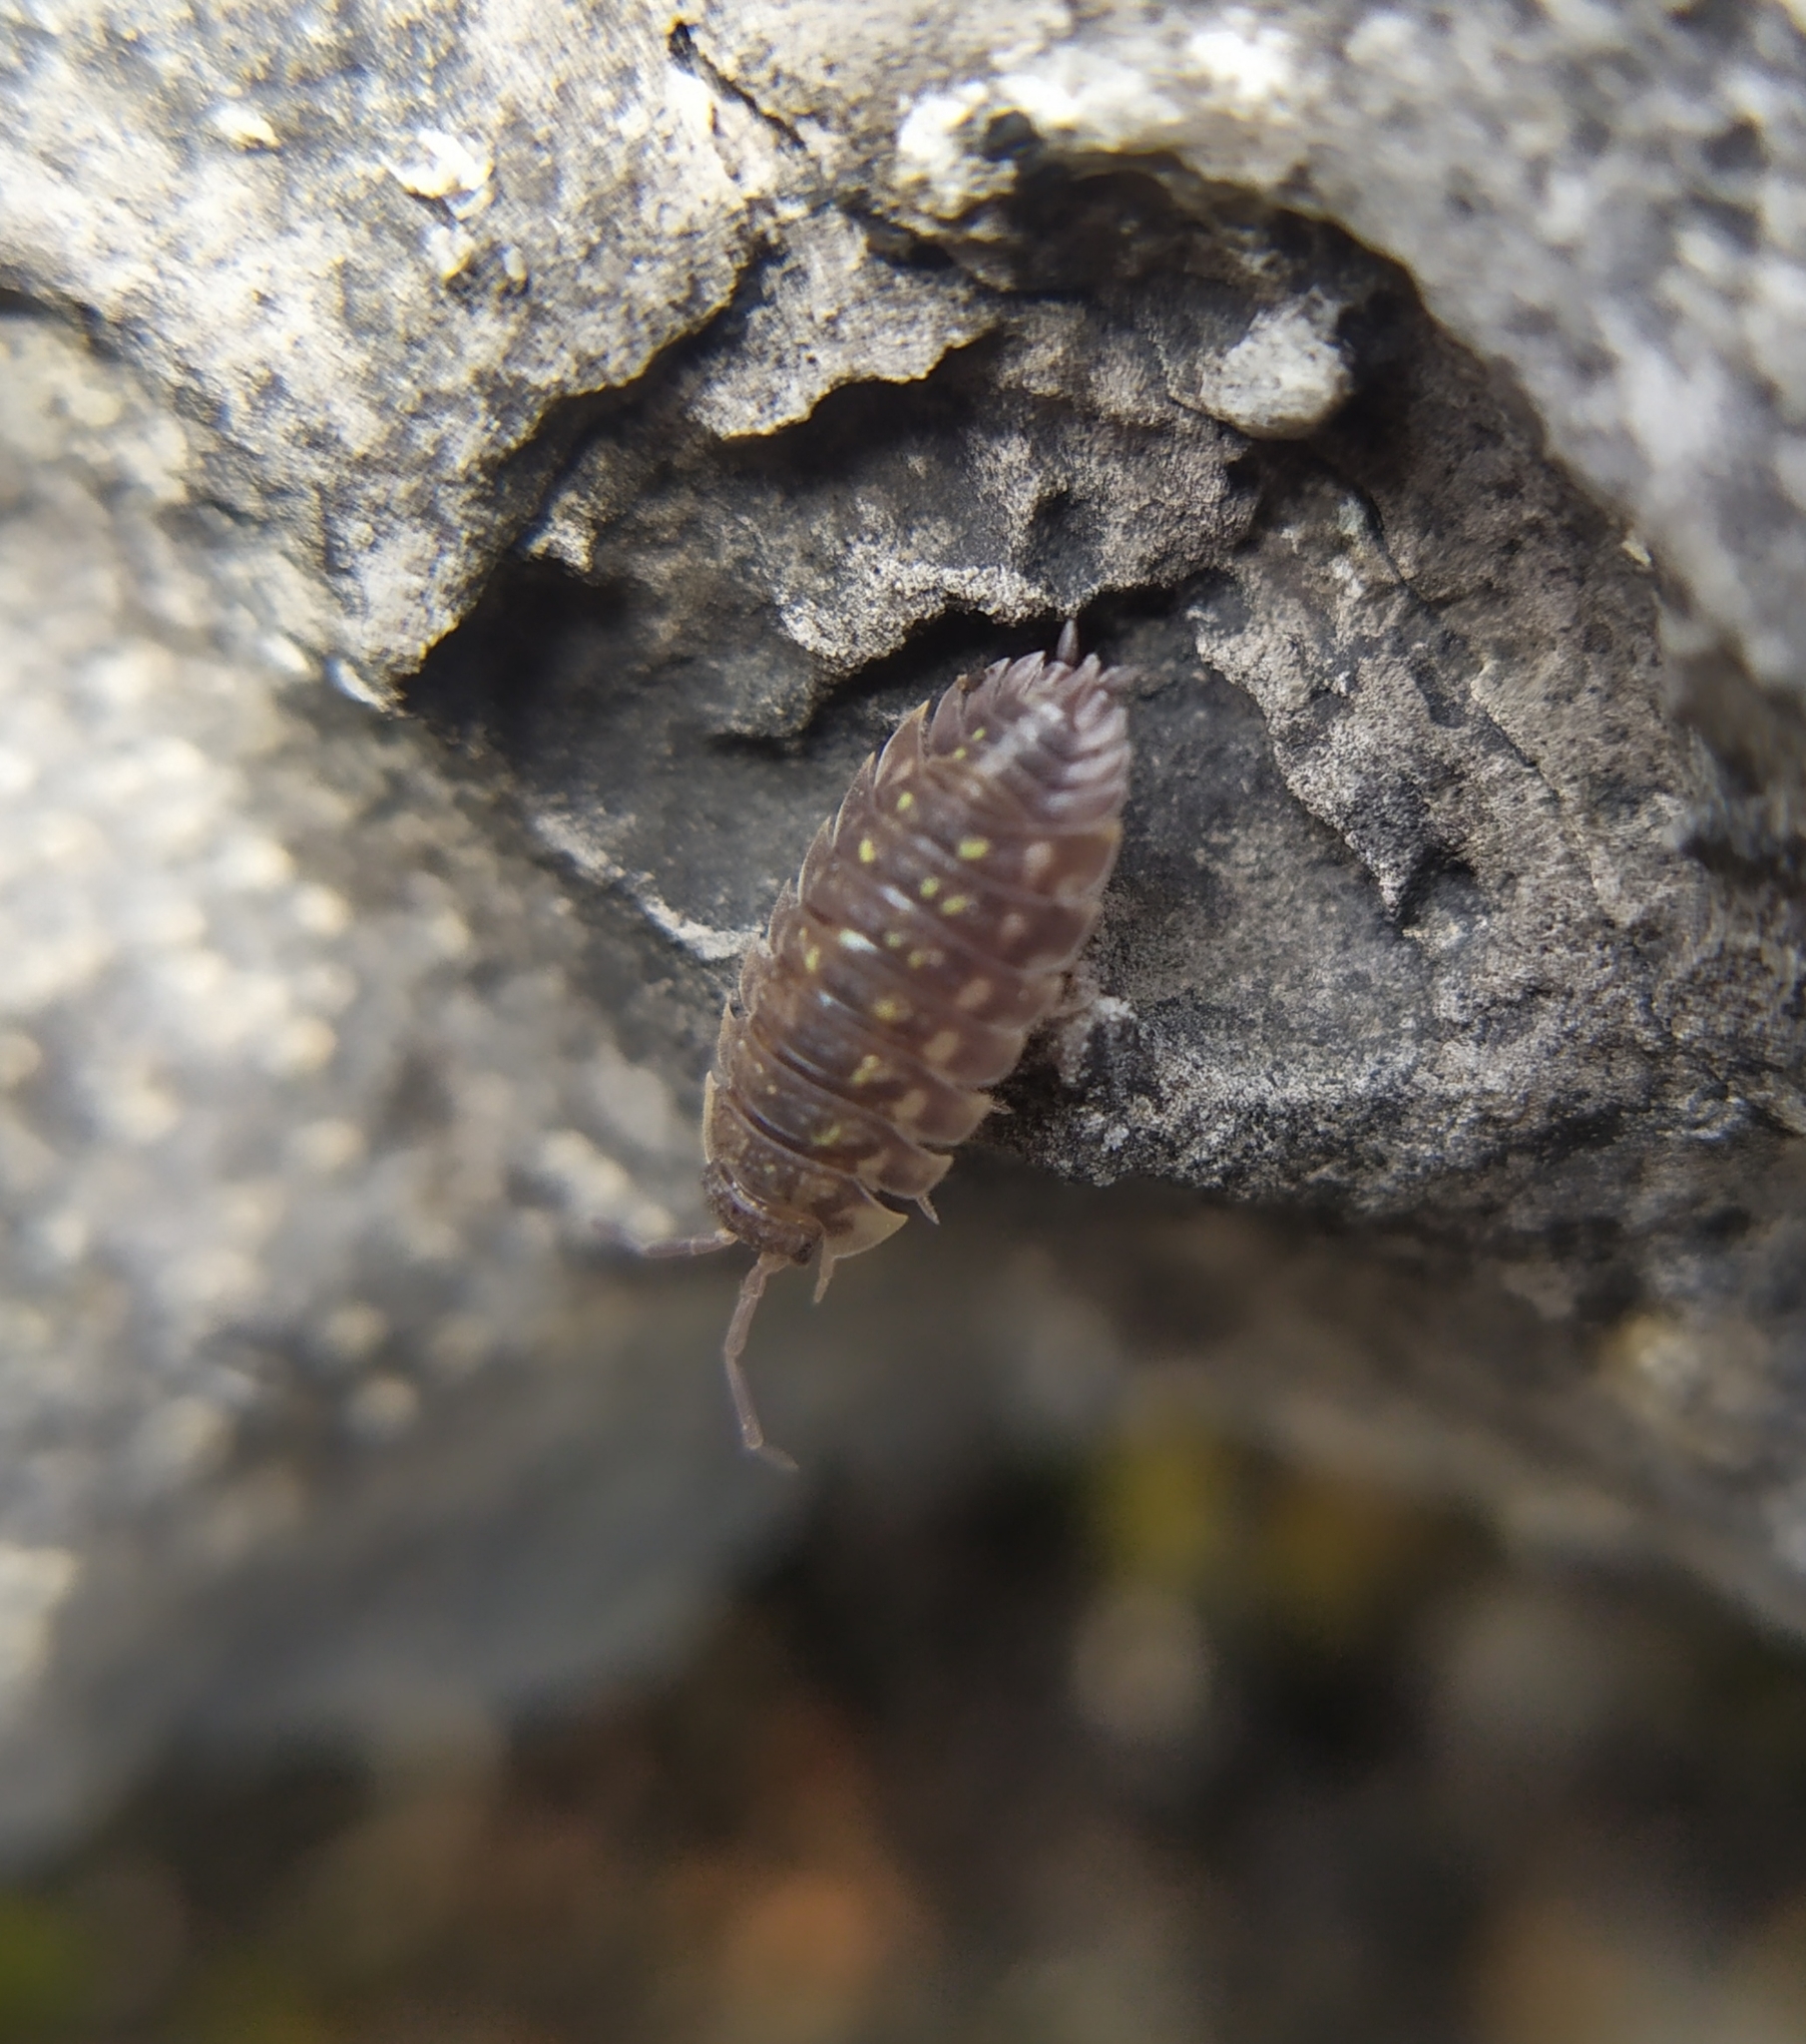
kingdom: Animalia
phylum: Arthropoda
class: Malacostraca
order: Isopoda
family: Oniscidae
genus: Oniscus
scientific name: Oniscus asellus
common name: Common shiny woodlouse
